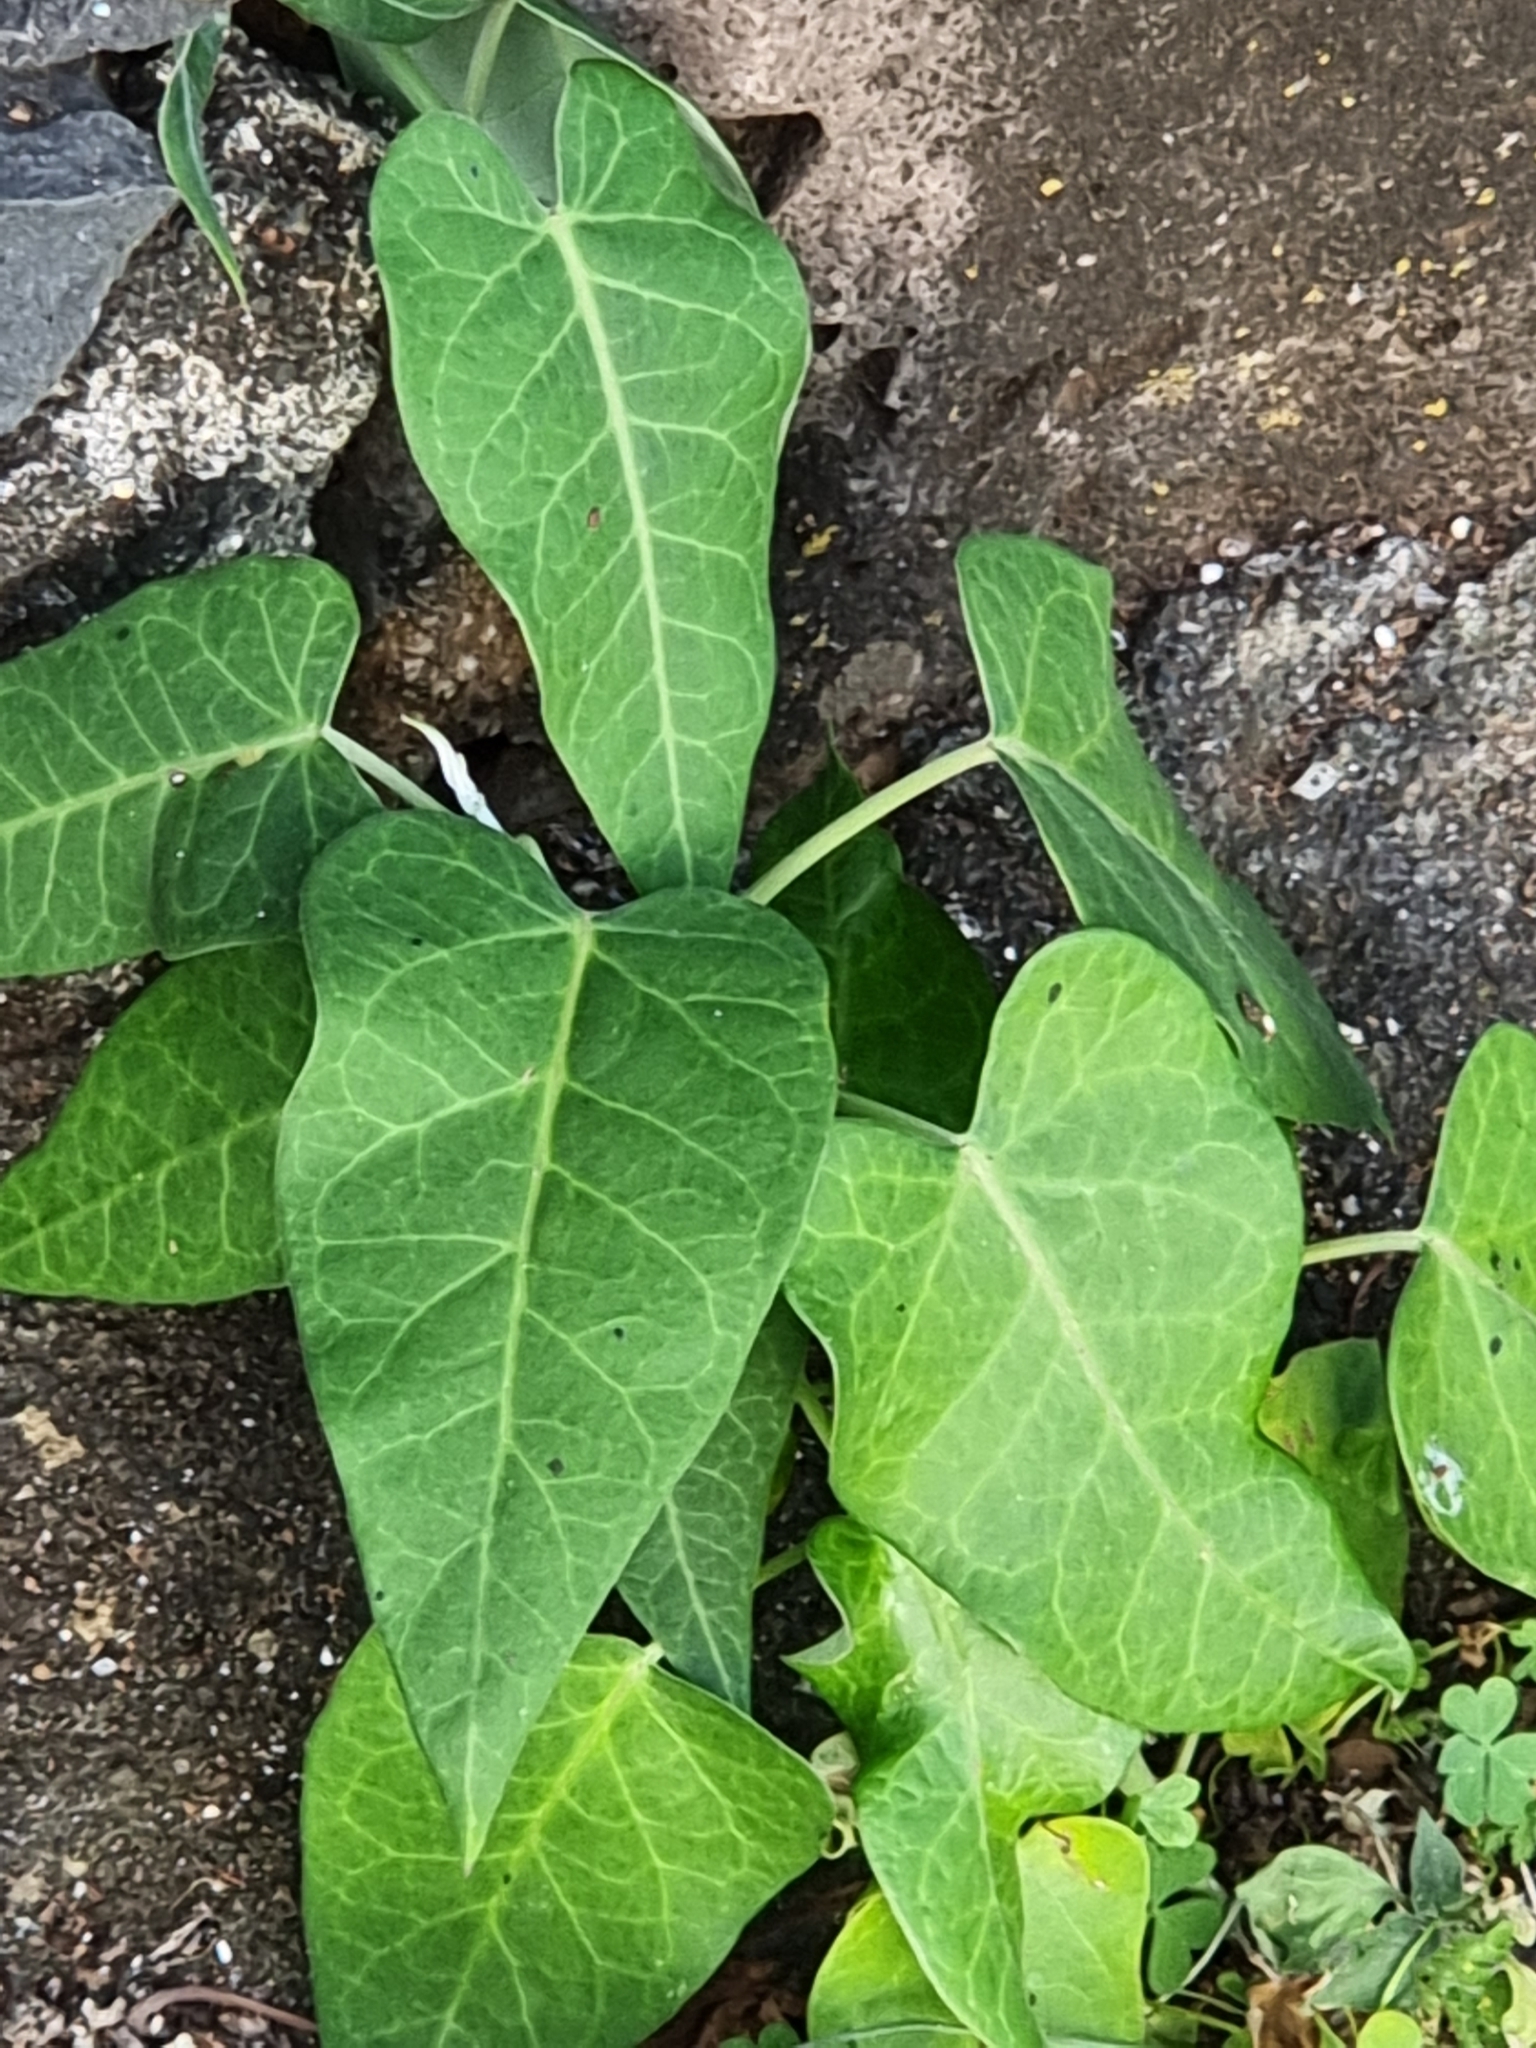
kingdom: Plantae
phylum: Tracheophyta
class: Magnoliopsida
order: Gentianales
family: Apocynaceae
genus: Araujia
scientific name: Araujia sericifera
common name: White bladderflower
